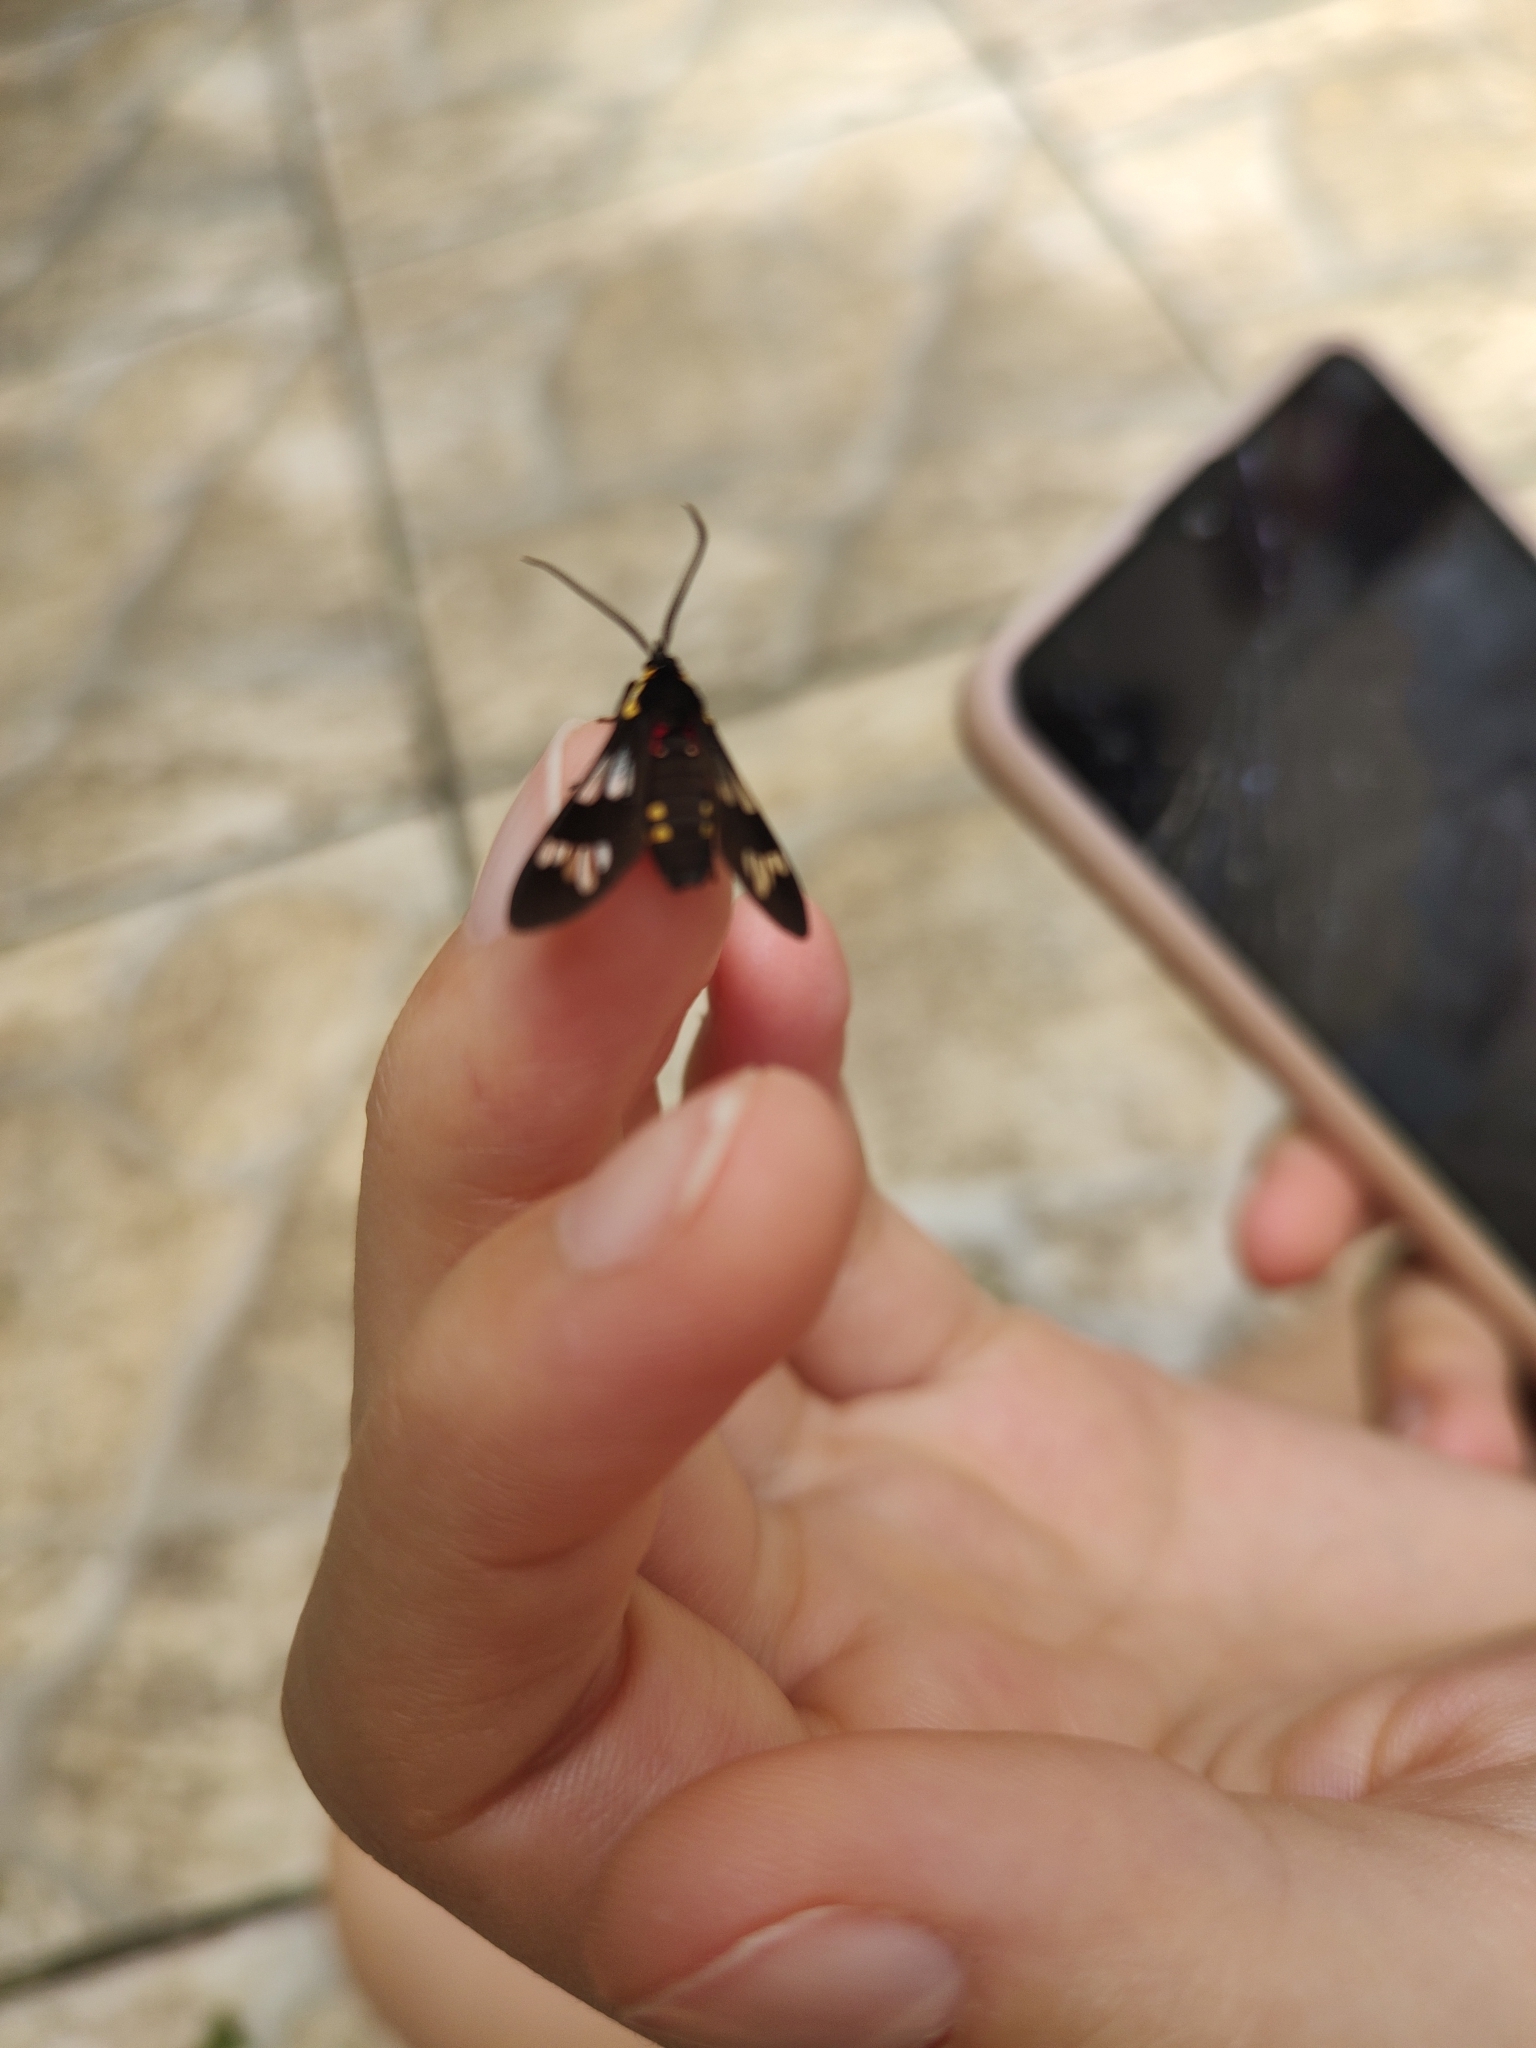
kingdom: Animalia
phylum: Arthropoda
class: Insecta
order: Lepidoptera
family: Erebidae
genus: Eurata
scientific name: Eurata hermione
